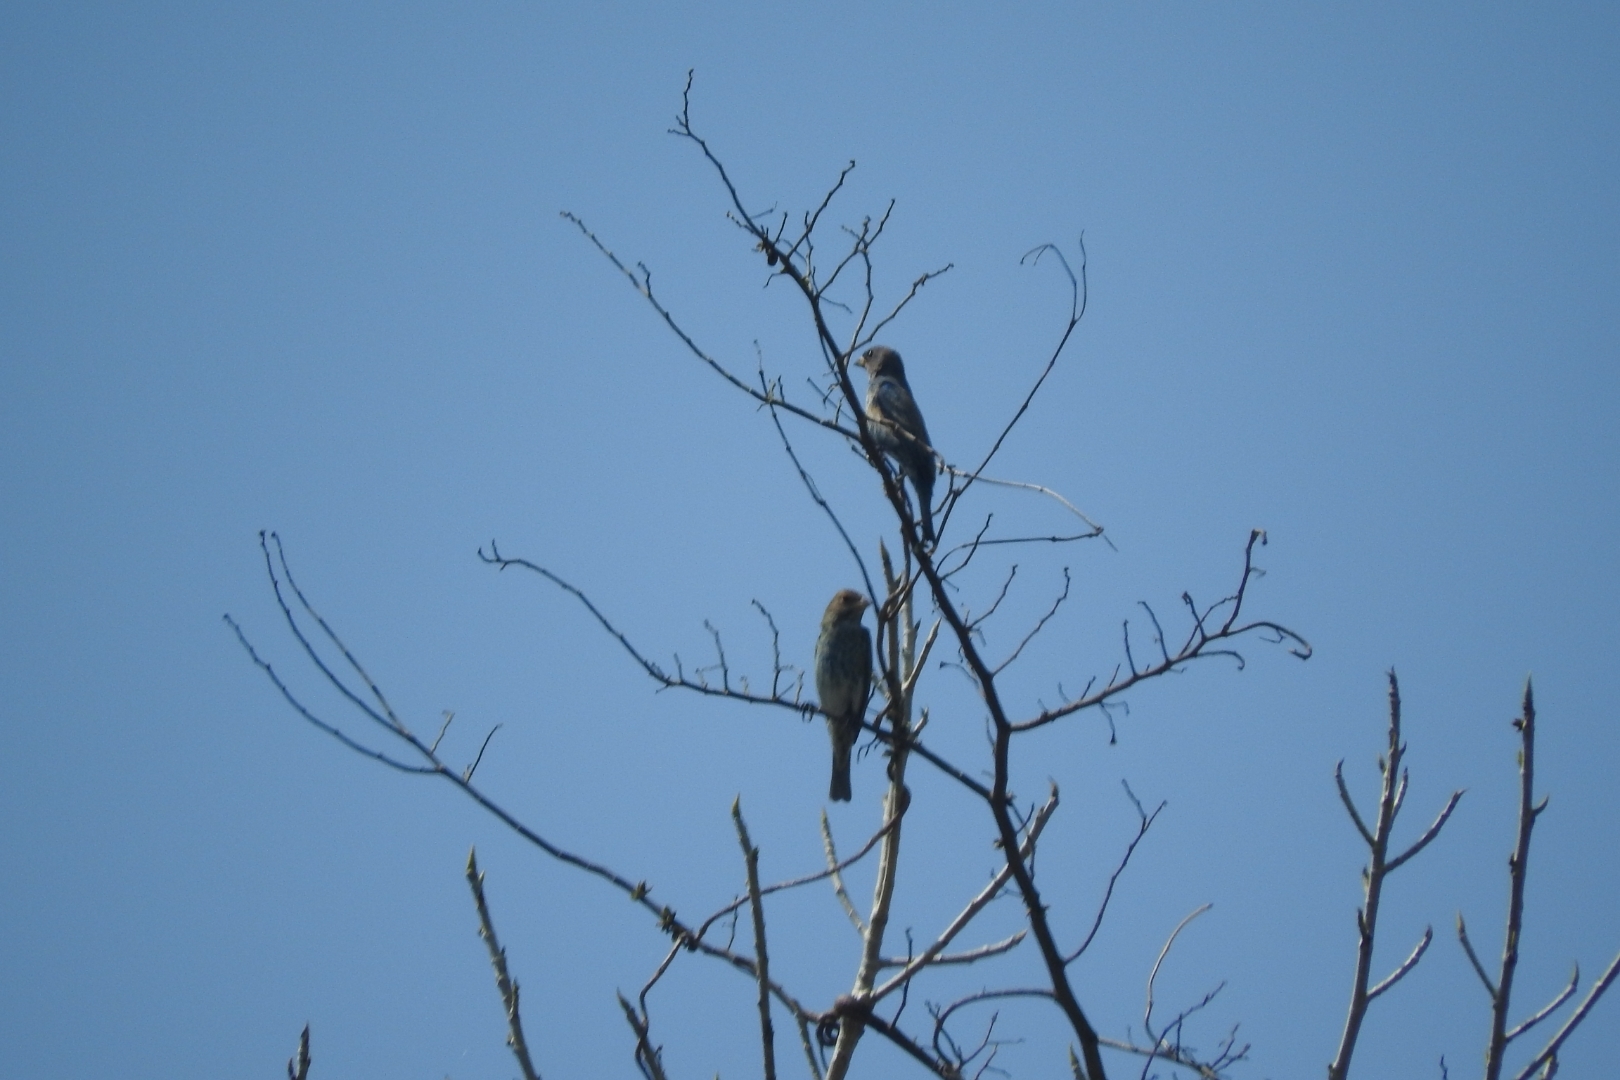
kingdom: Animalia
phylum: Chordata
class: Aves
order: Passeriformes
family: Cardinalidae
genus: Passerina
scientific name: Passerina cyanea
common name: Indigo bunting
